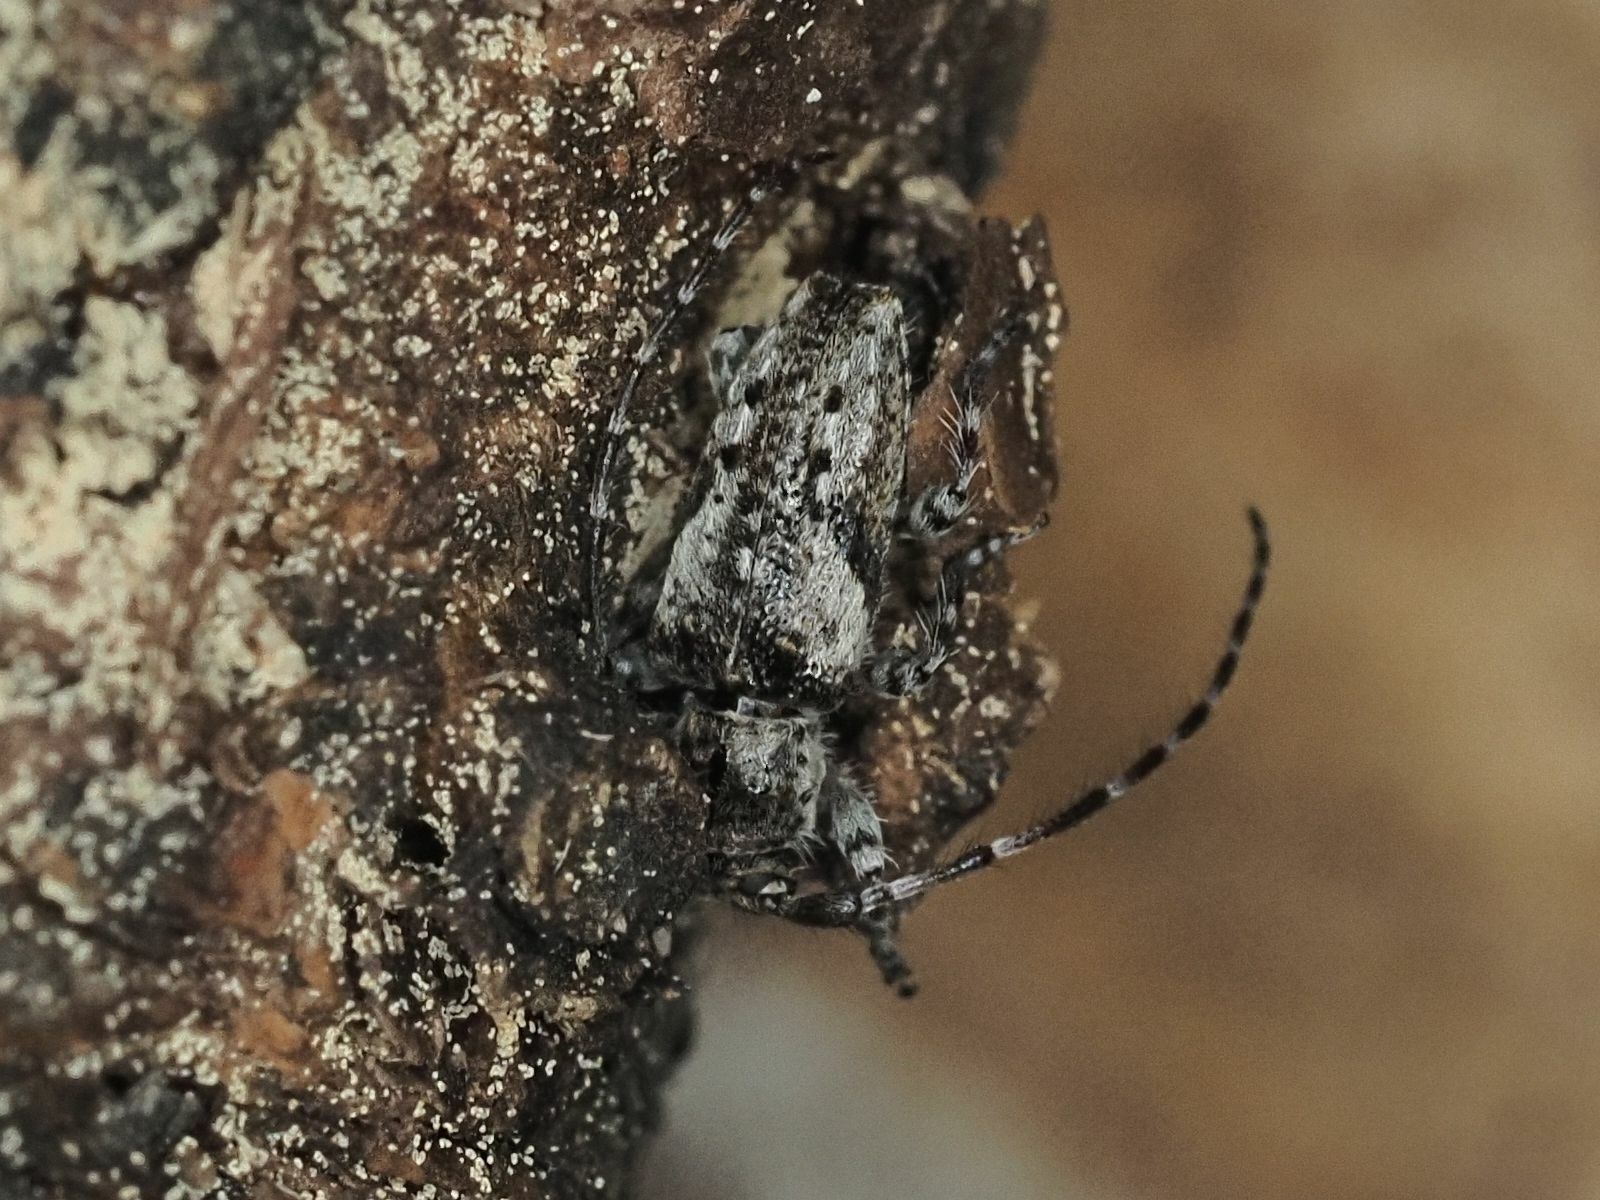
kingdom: Animalia
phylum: Arthropoda
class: Insecta
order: Coleoptera
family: Cerambycidae
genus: Pogonocherus
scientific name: Pogonocherus decoratus
